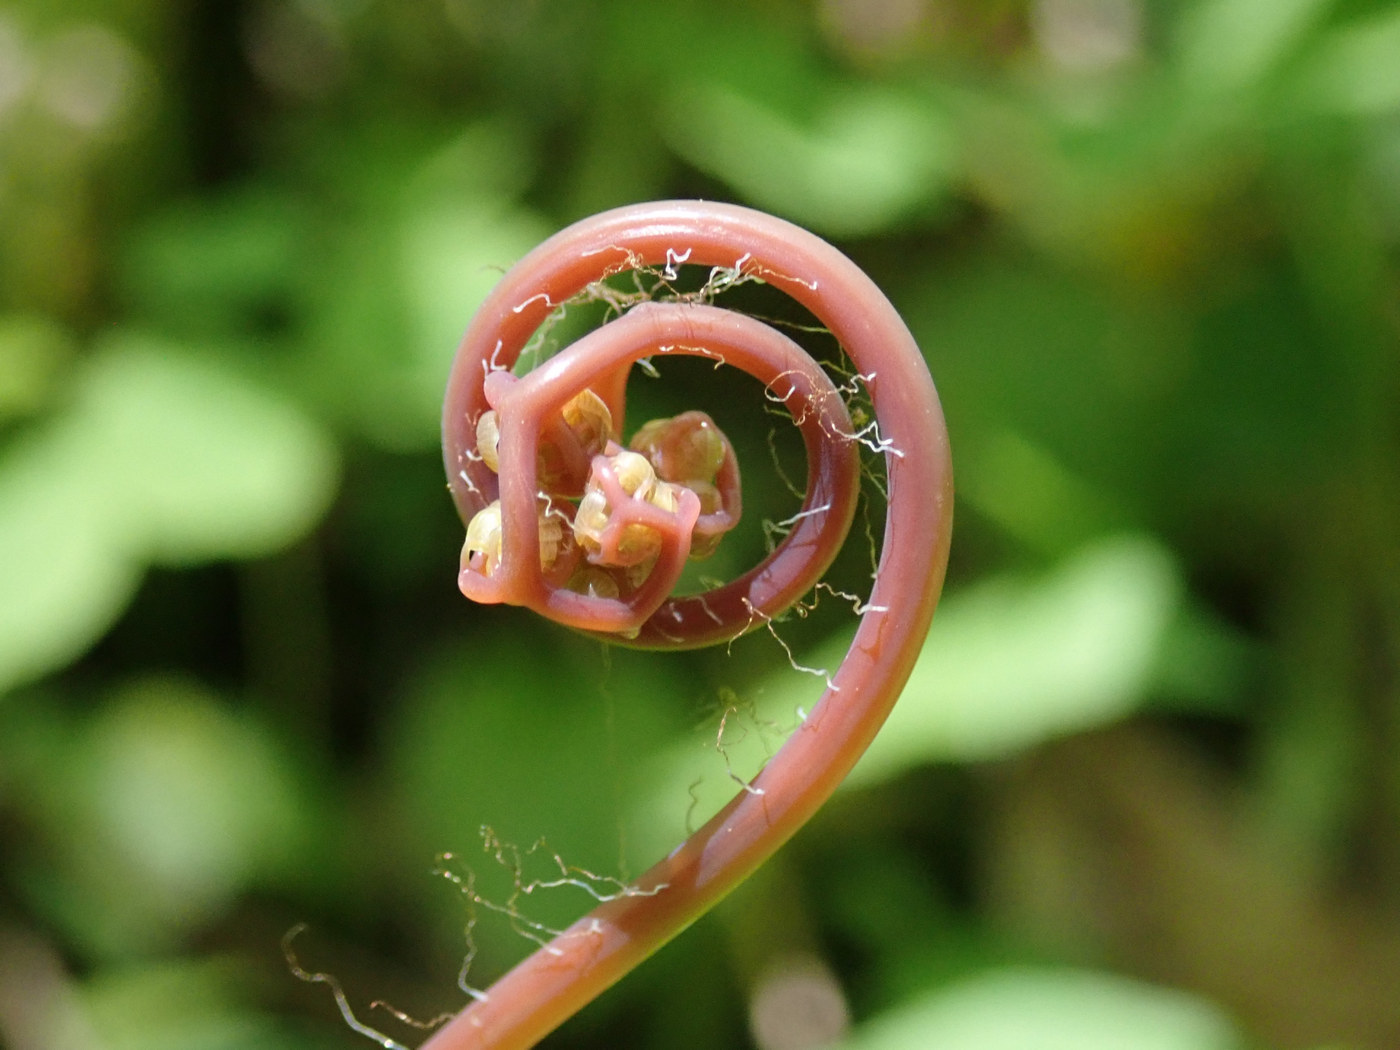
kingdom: Plantae
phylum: Tracheophyta
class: Polypodiopsida
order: Polypodiales
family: Pteridaceae
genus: Adiantum
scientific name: Adiantum pedatum
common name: Five-finger fern
